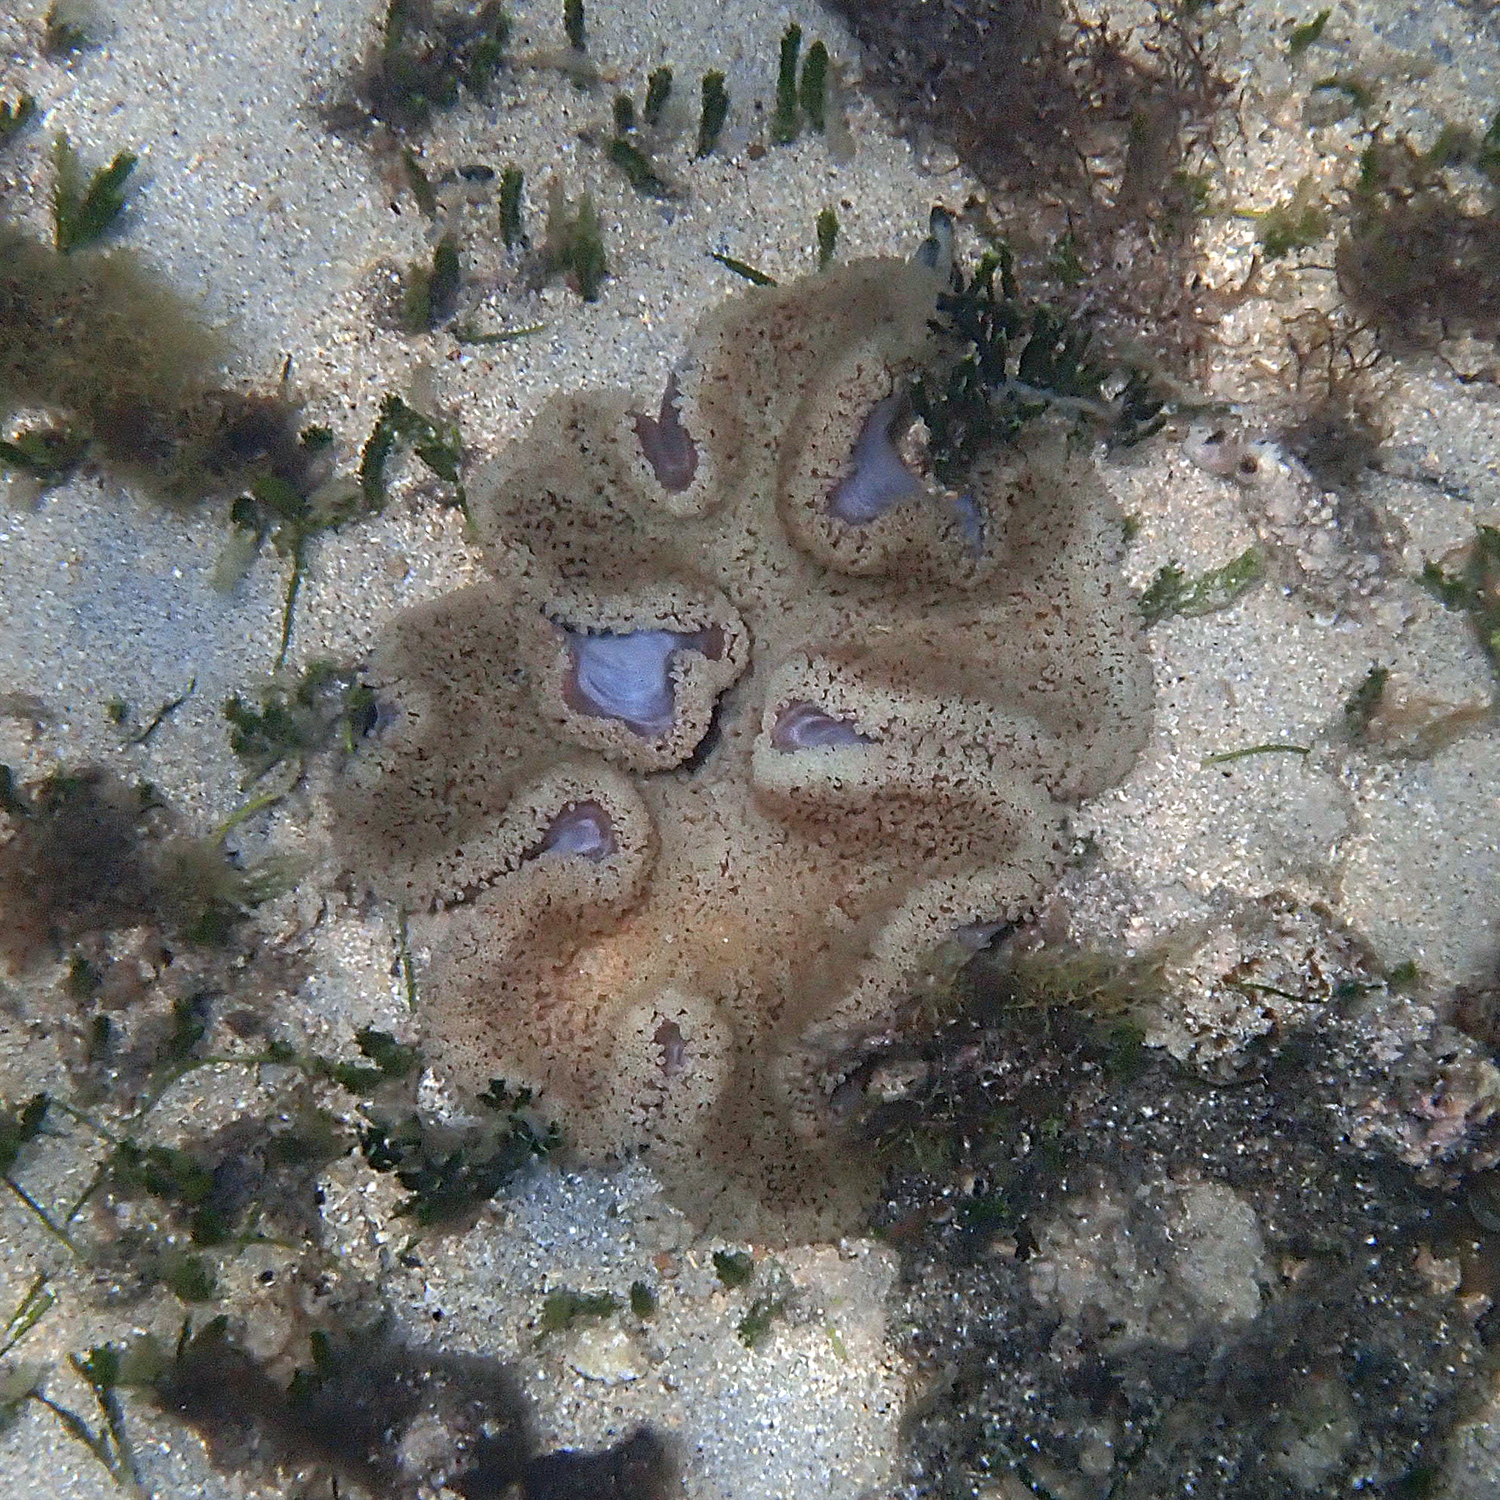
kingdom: Animalia
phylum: Cnidaria
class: Anthozoa
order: Actiniaria
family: Stichodactylidae
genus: Stichodactyla
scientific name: Stichodactyla haddoni
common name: Haddon's sea anemone
